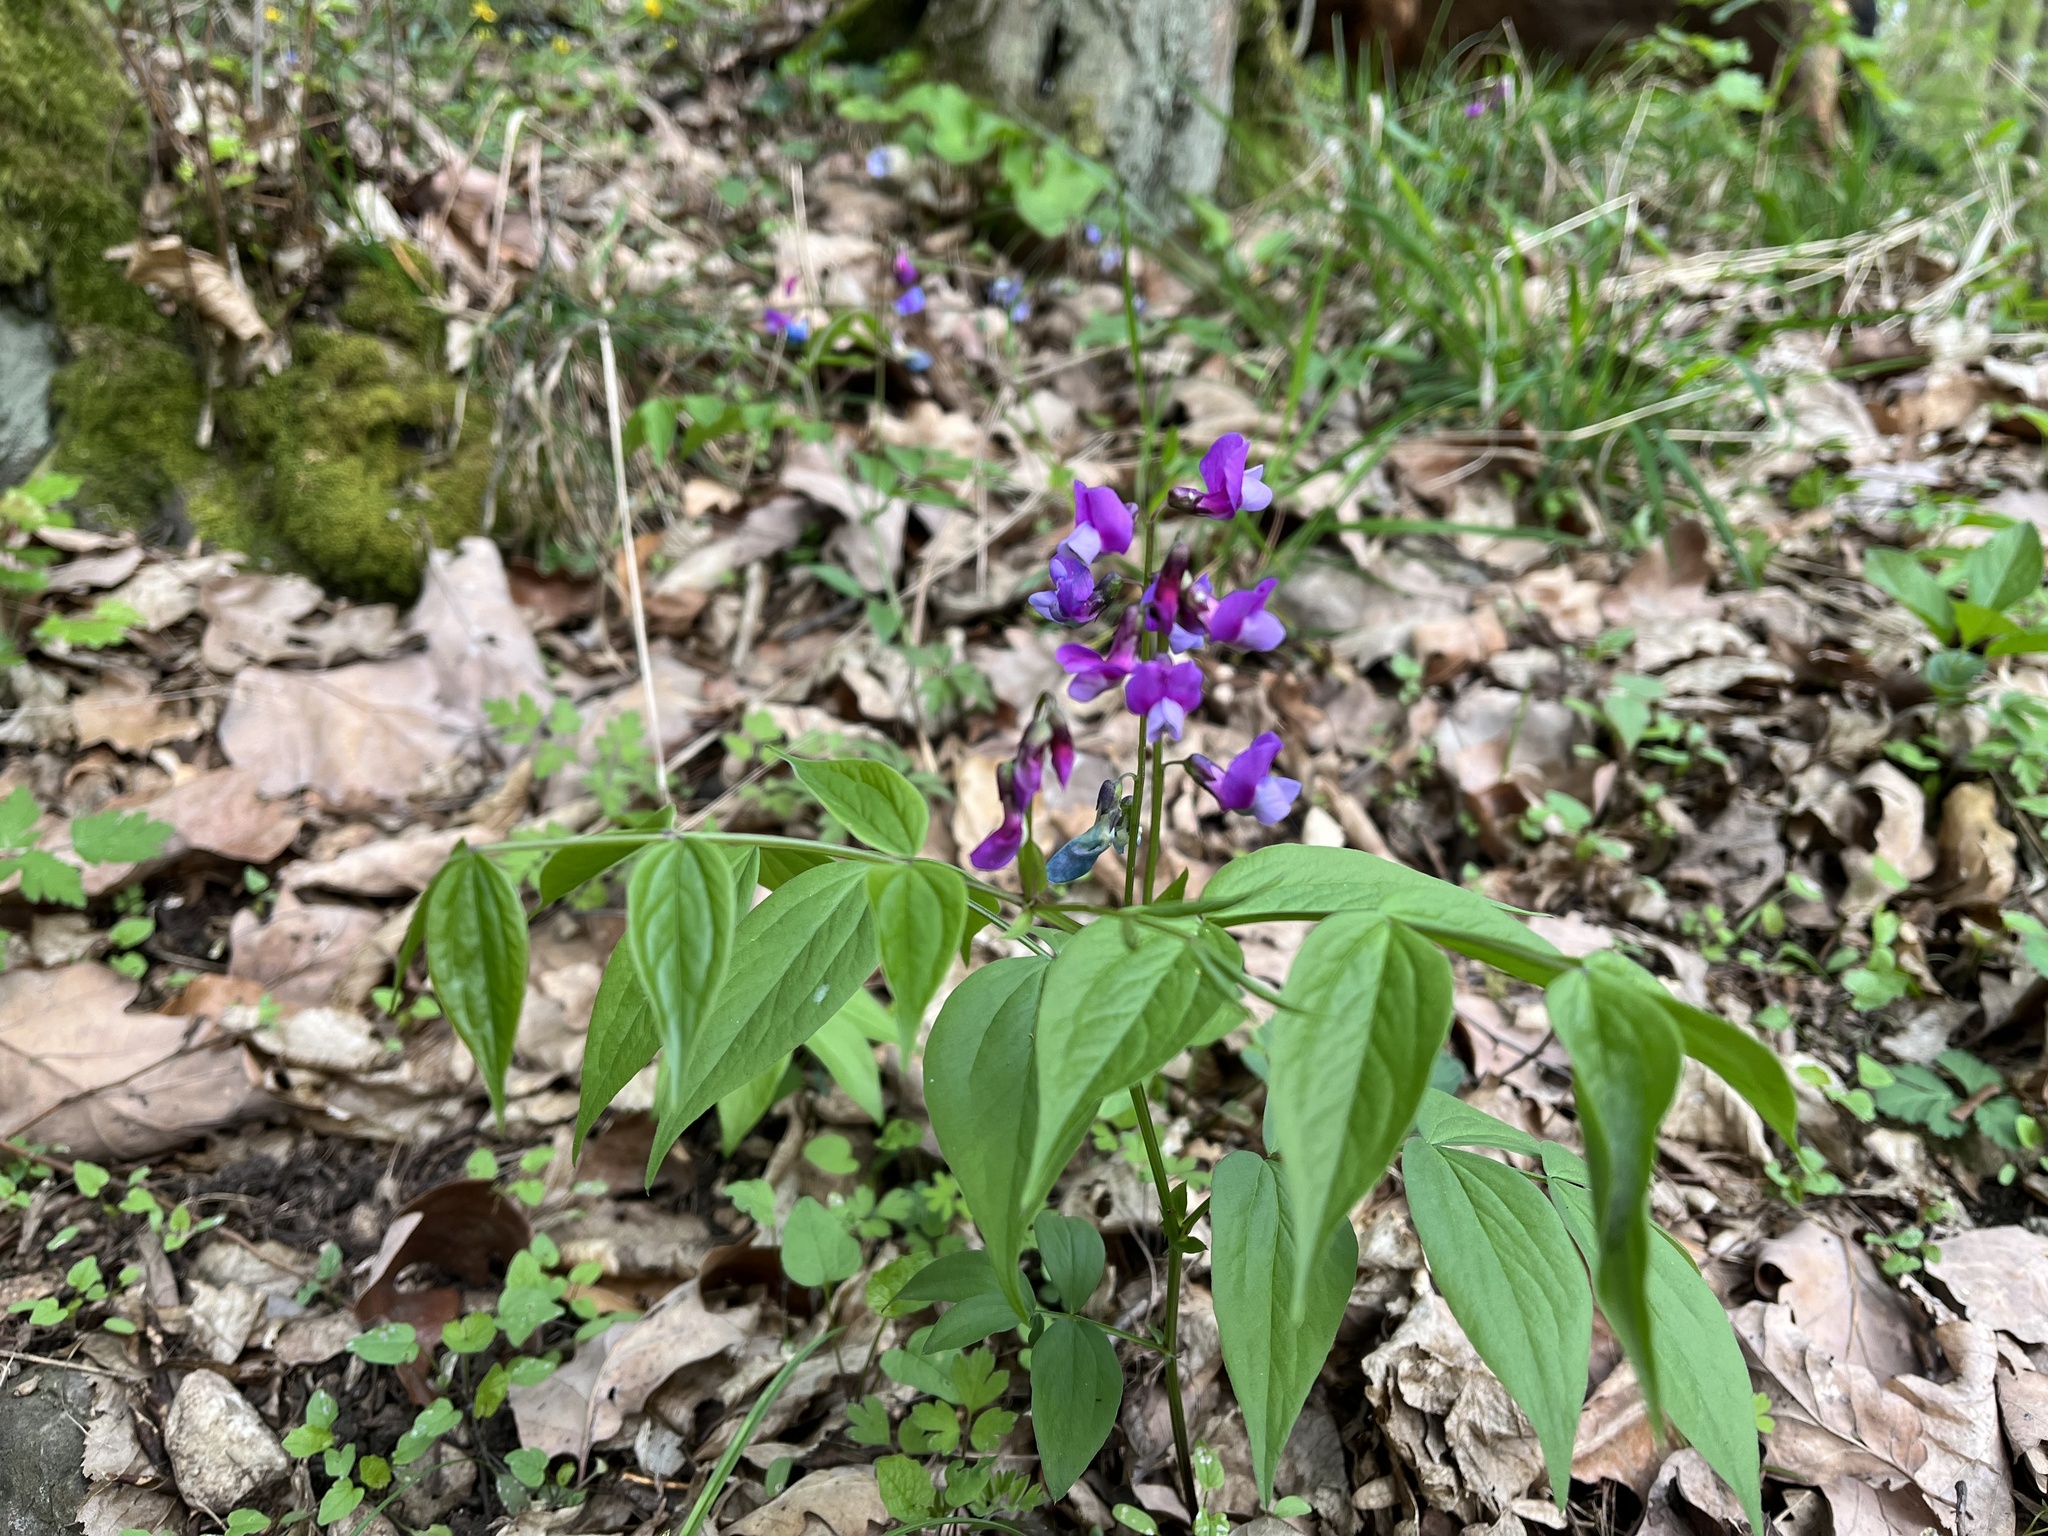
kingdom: Plantae
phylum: Tracheophyta
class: Magnoliopsida
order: Fabales
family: Fabaceae
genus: Lathyrus
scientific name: Lathyrus vernus
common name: Spring pea
